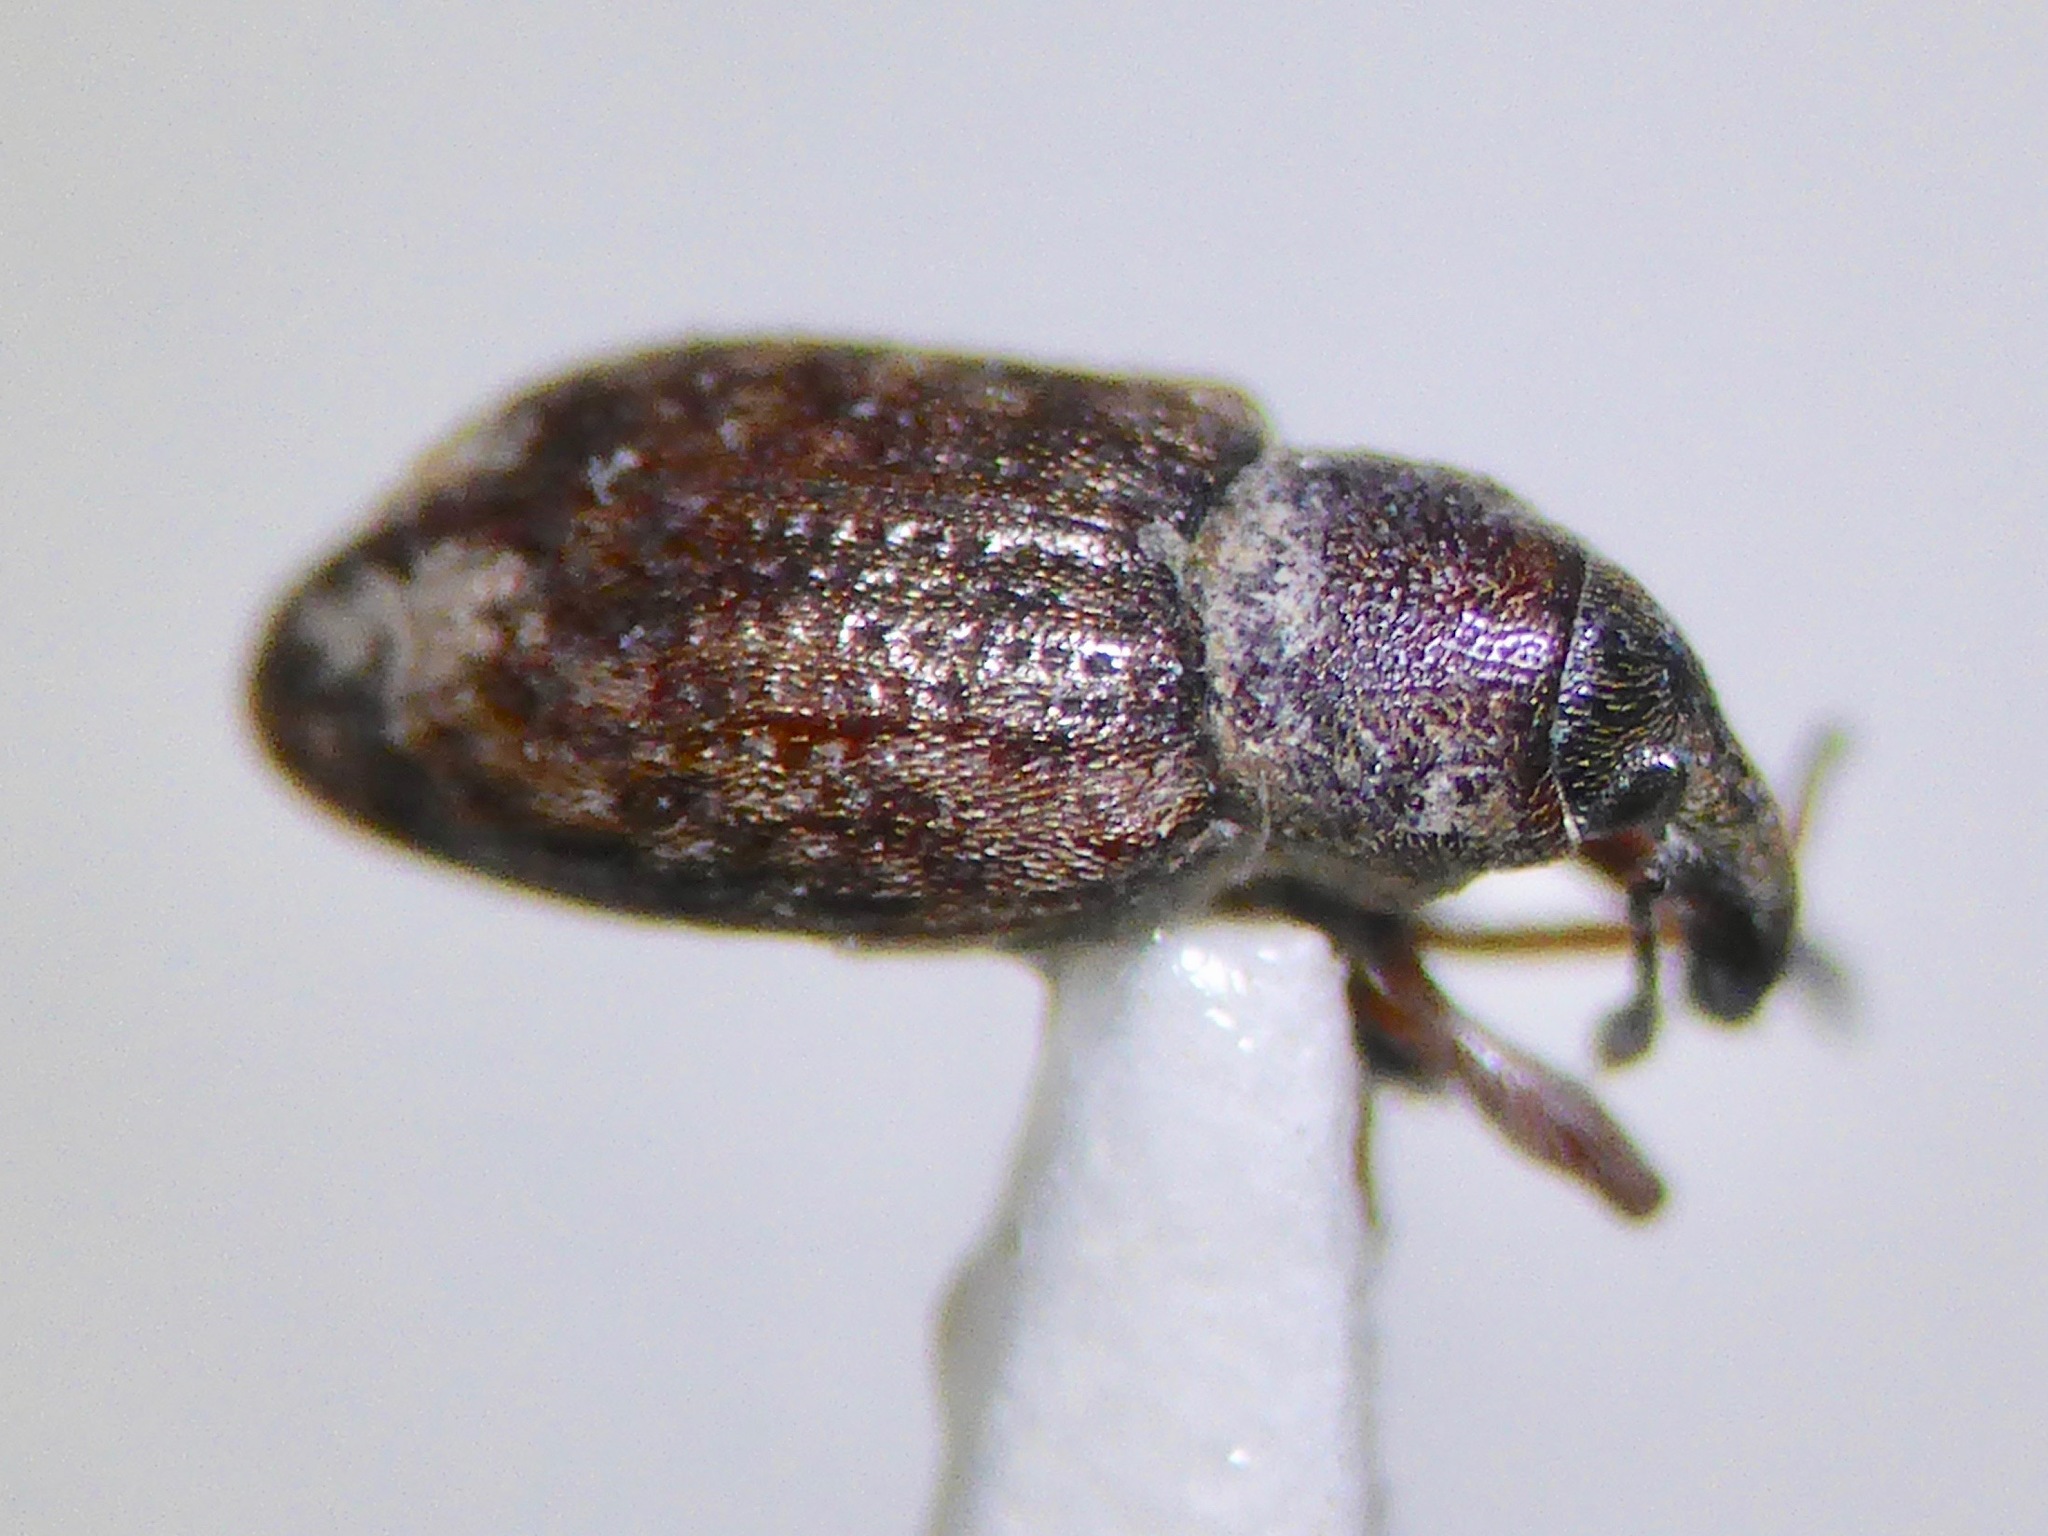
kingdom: Animalia
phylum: Arthropoda
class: Insecta
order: Coleoptera
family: Curculionidae
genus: Steriphus
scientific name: Steriphus
